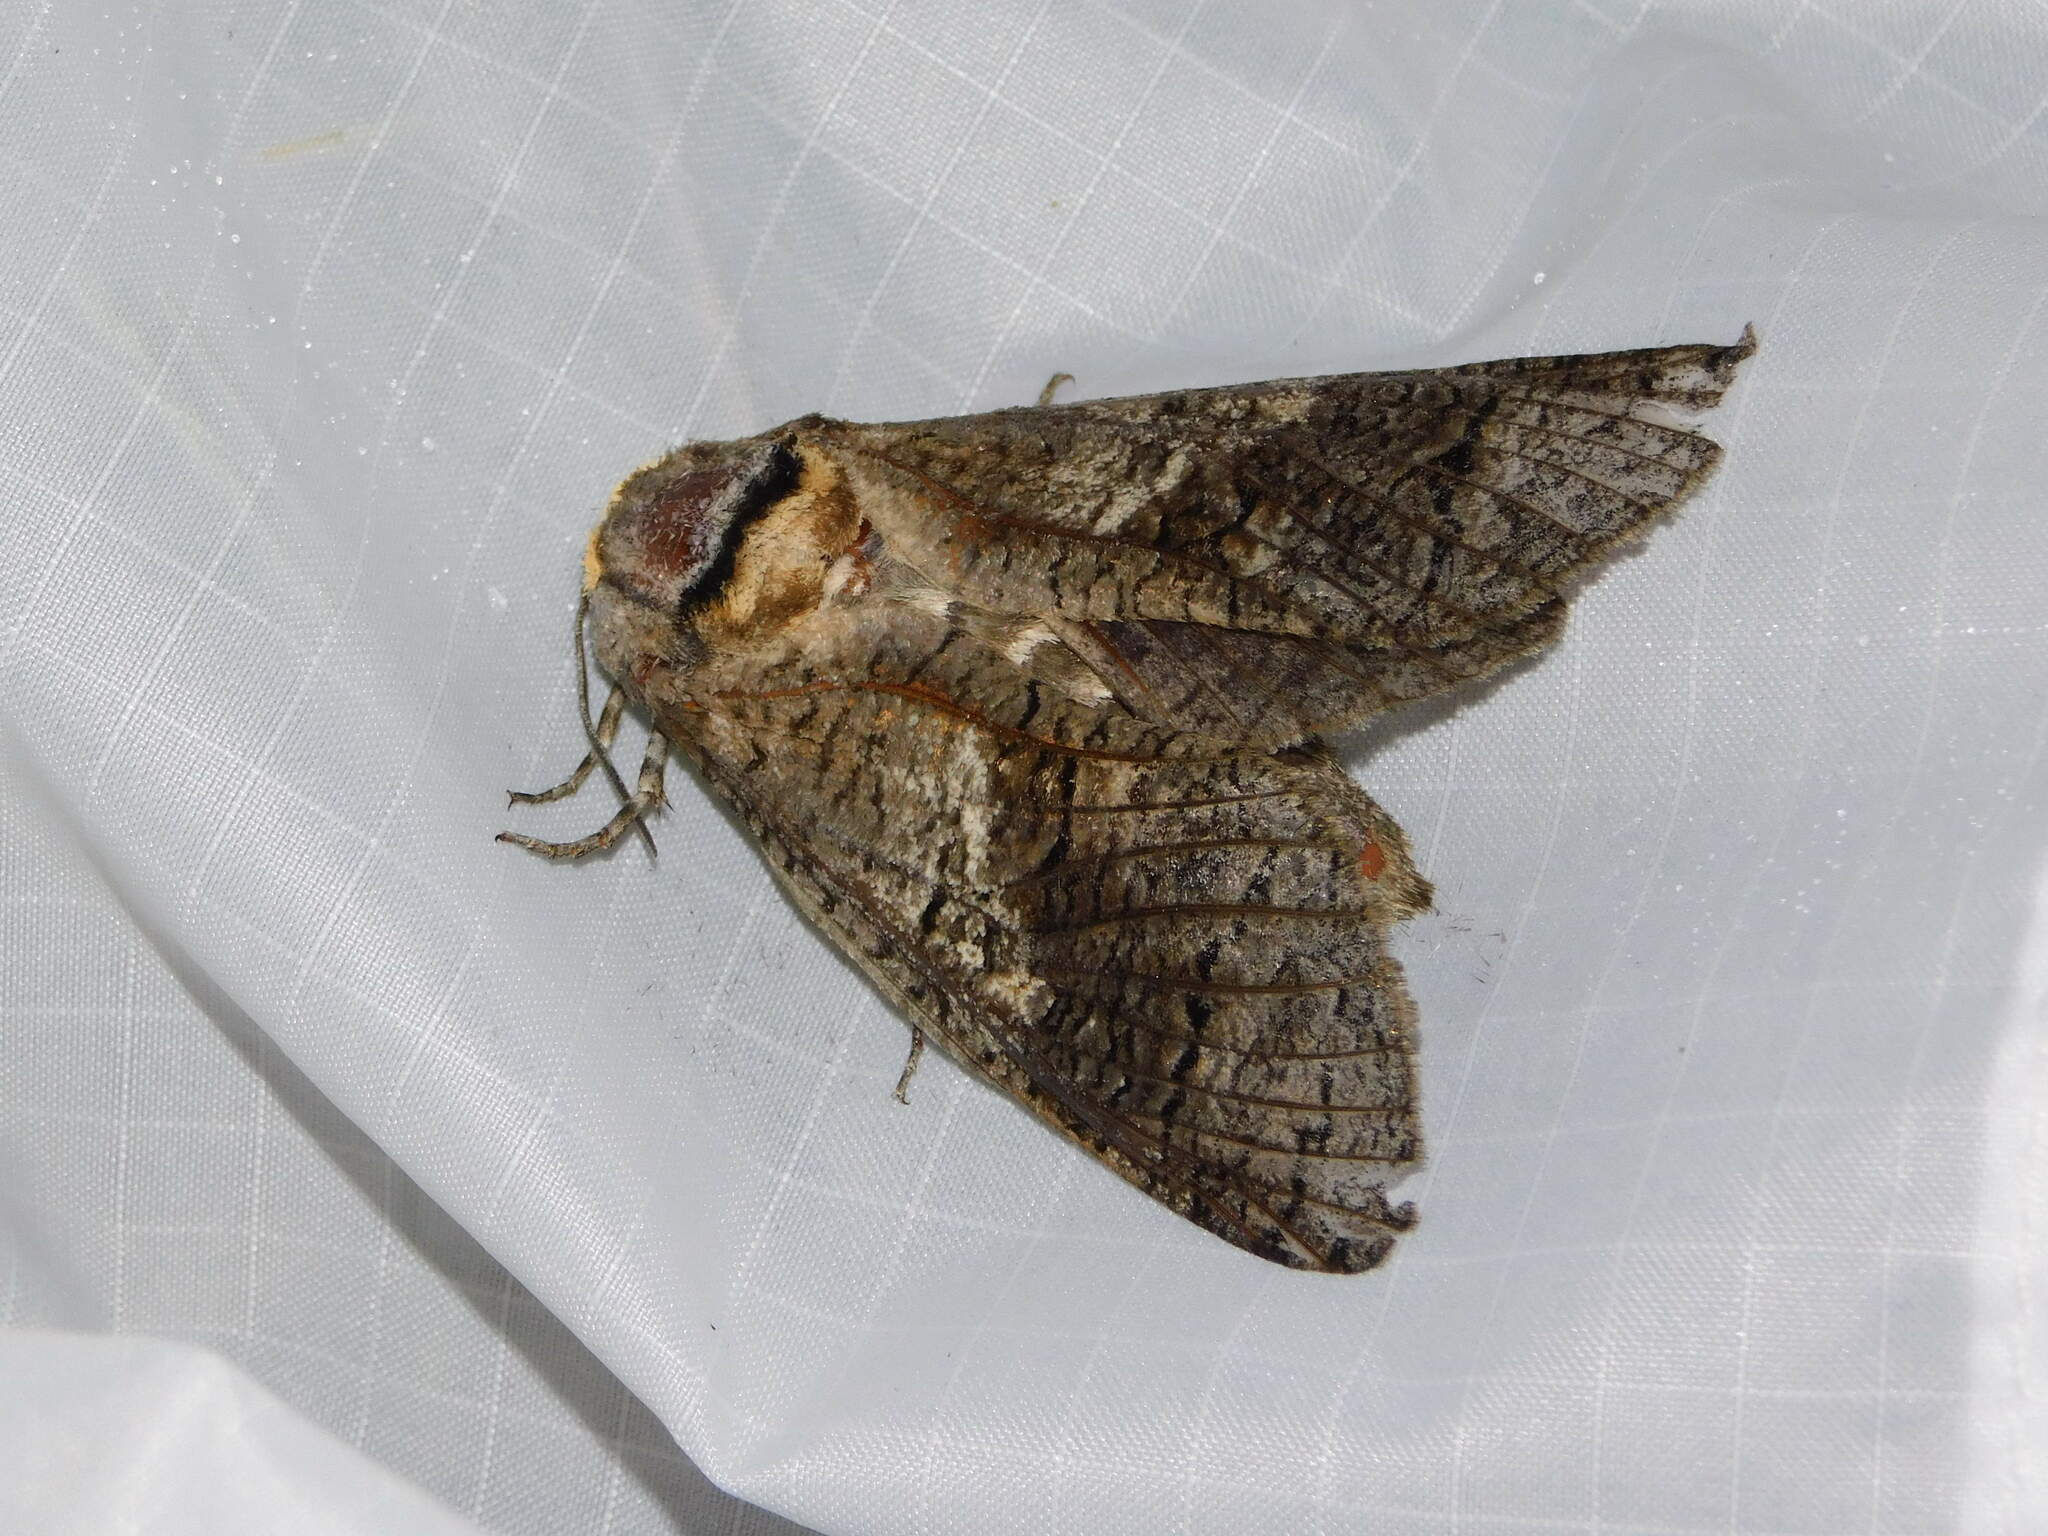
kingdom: Animalia
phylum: Arthropoda
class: Insecta
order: Lepidoptera
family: Cossidae
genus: Cossus
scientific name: Cossus cossus
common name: Goat moth
